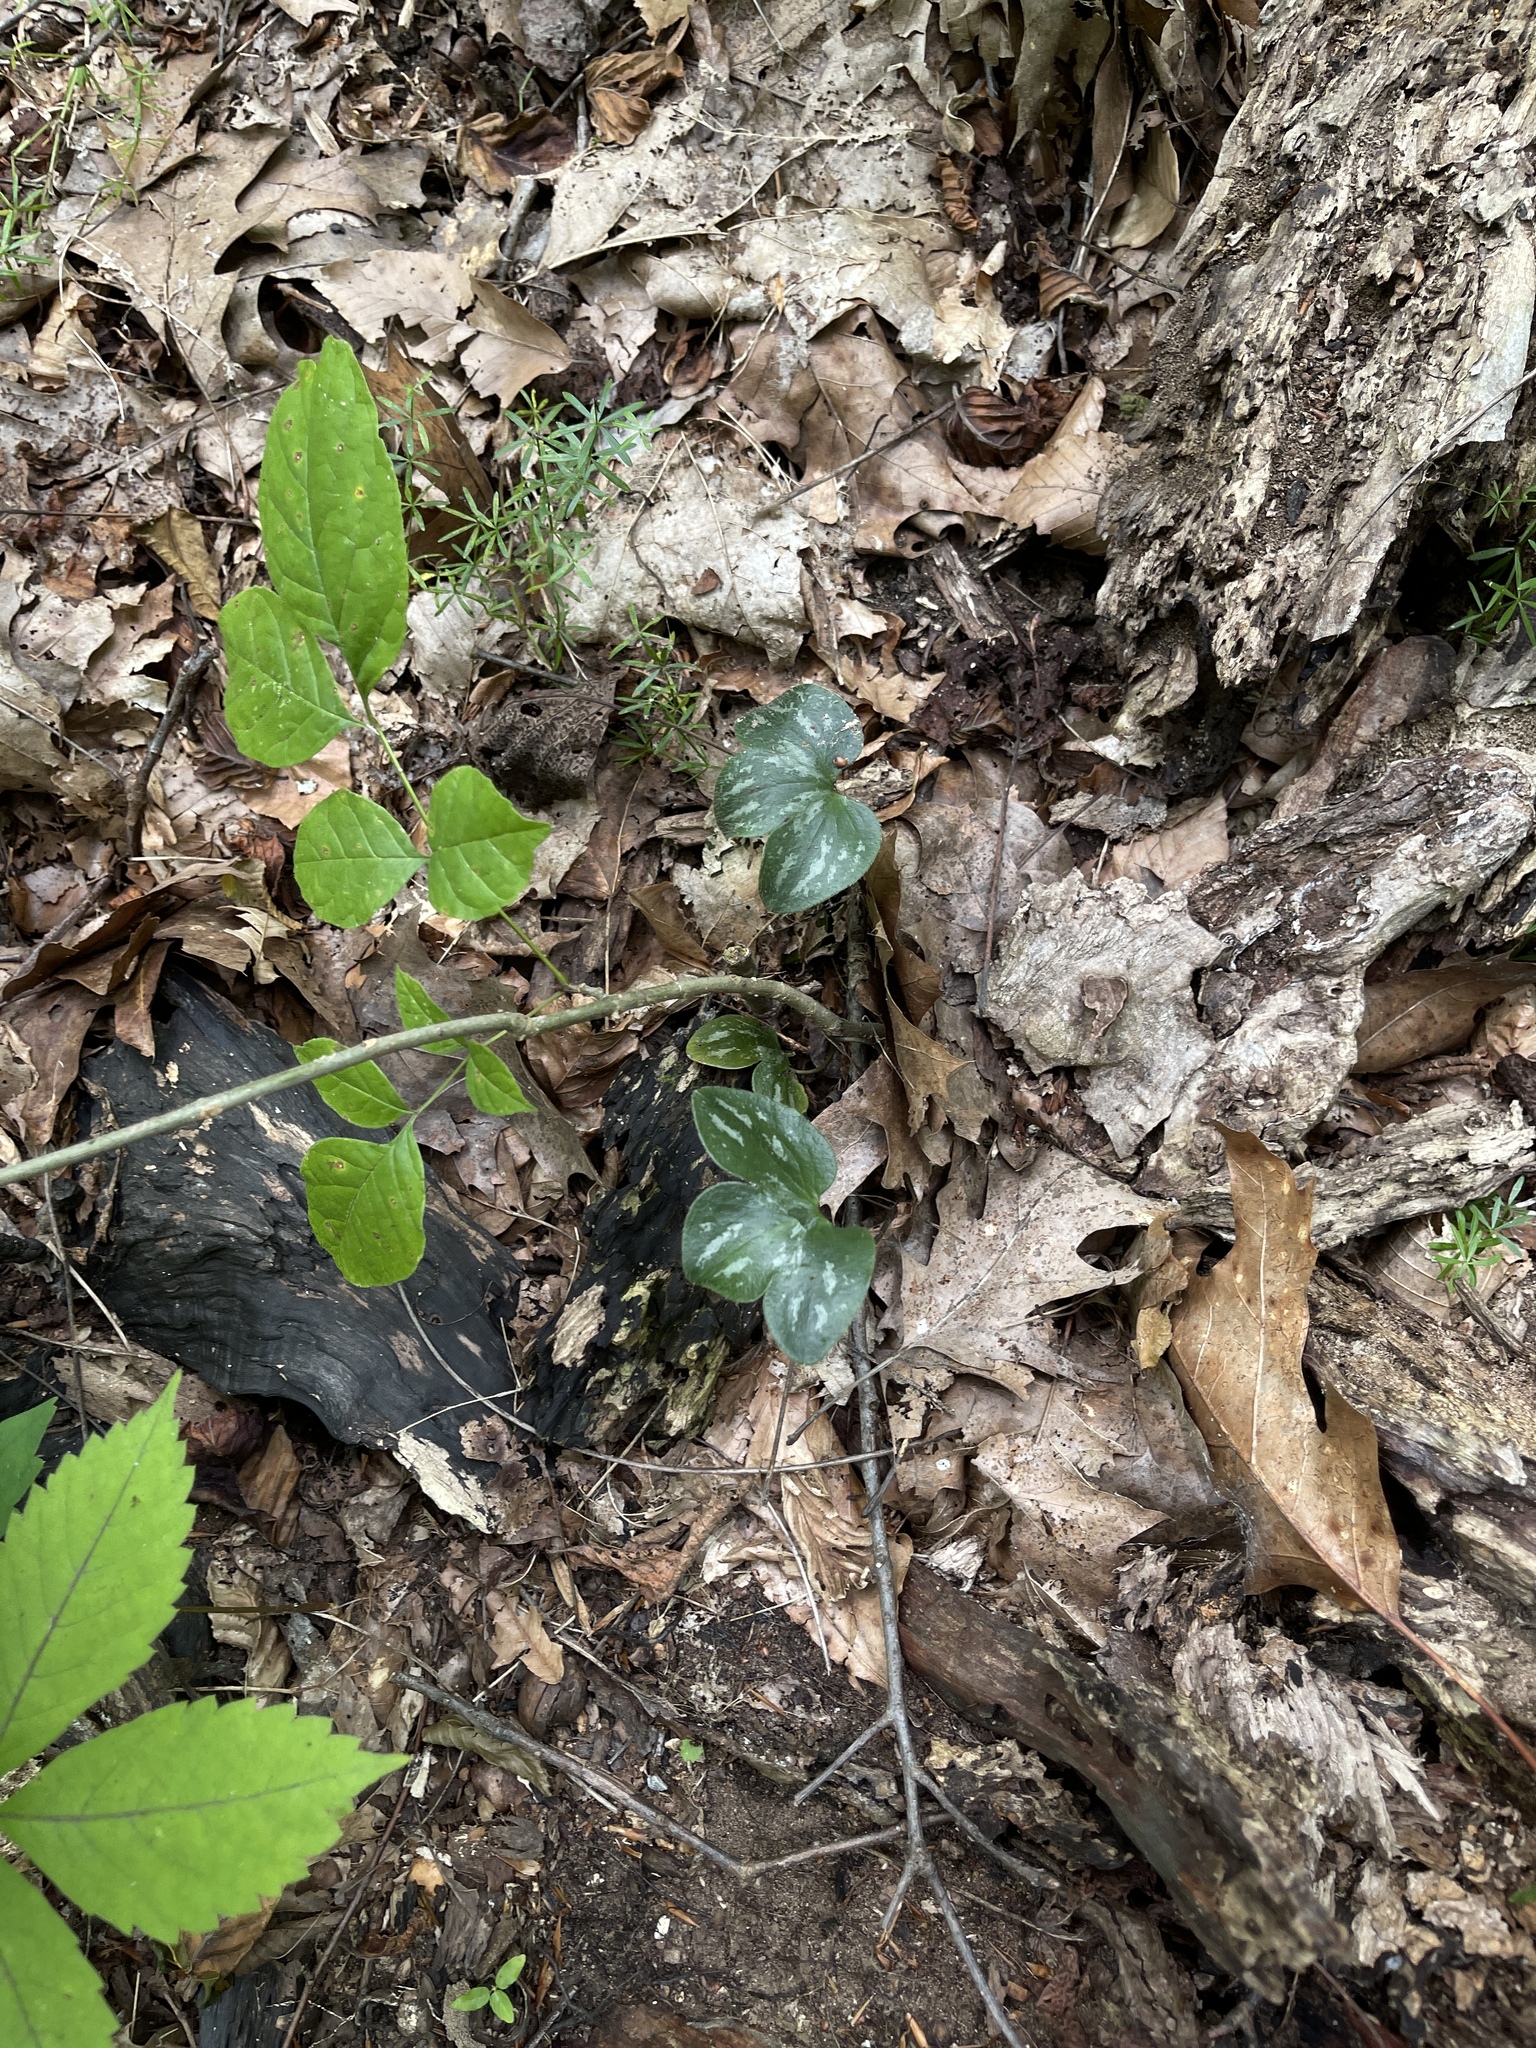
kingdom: Plantae
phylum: Tracheophyta
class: Magnoliopsida
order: Ranunculales
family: Ranunculaceae
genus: Hepatica
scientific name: Hepatica americana
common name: American hepatica
